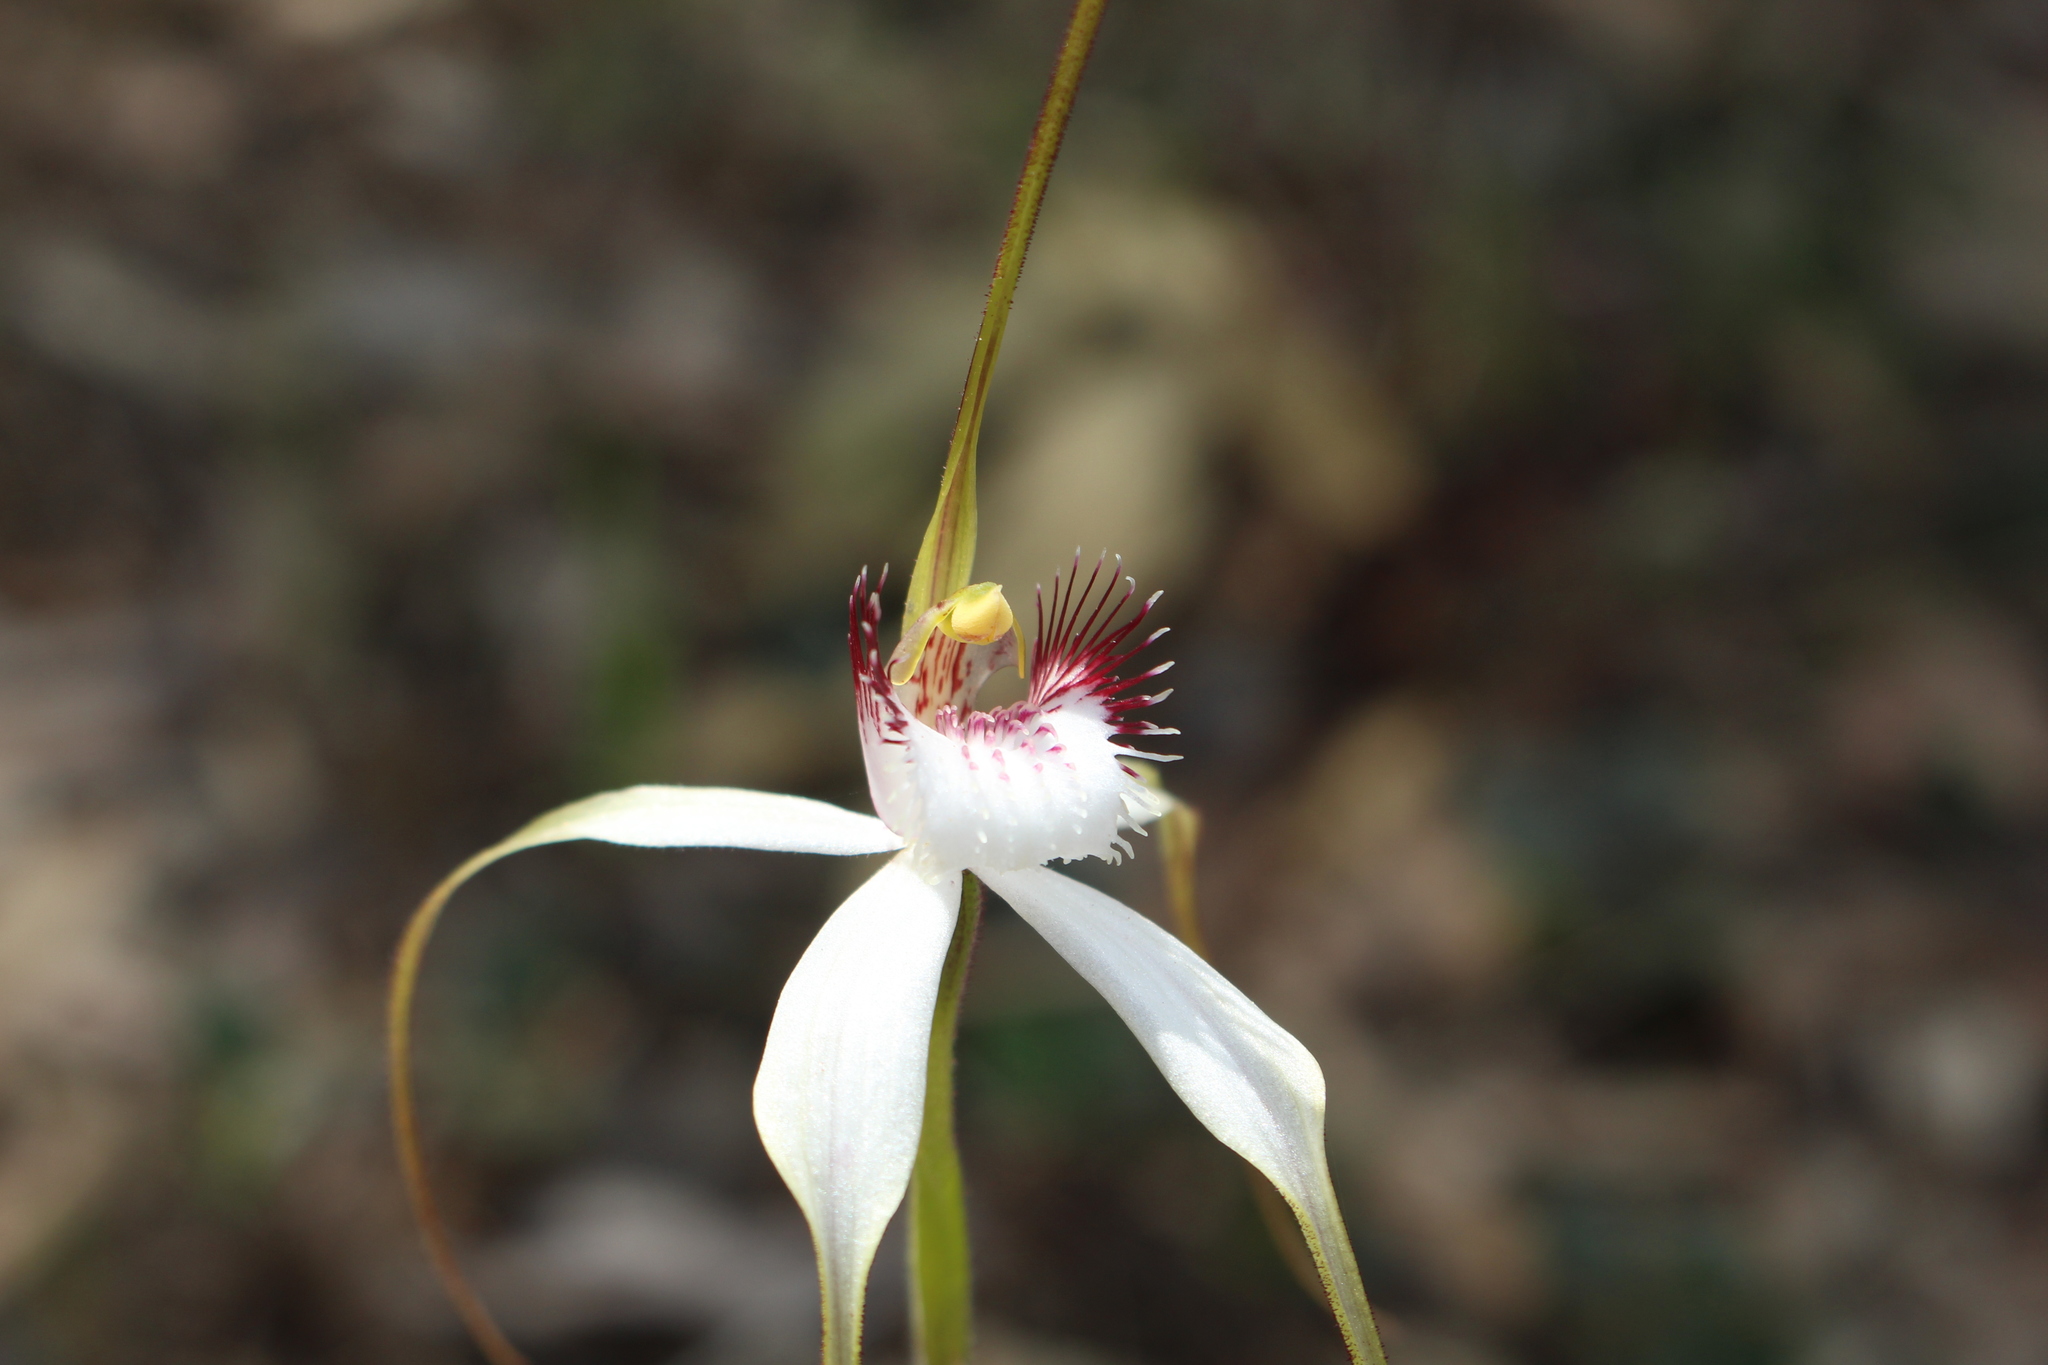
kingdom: Plantae
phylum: Tracheophyta
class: Liliopsida
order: Asparagales
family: Orchidaceae
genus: Caladenia
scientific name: Caladenia longicauda
